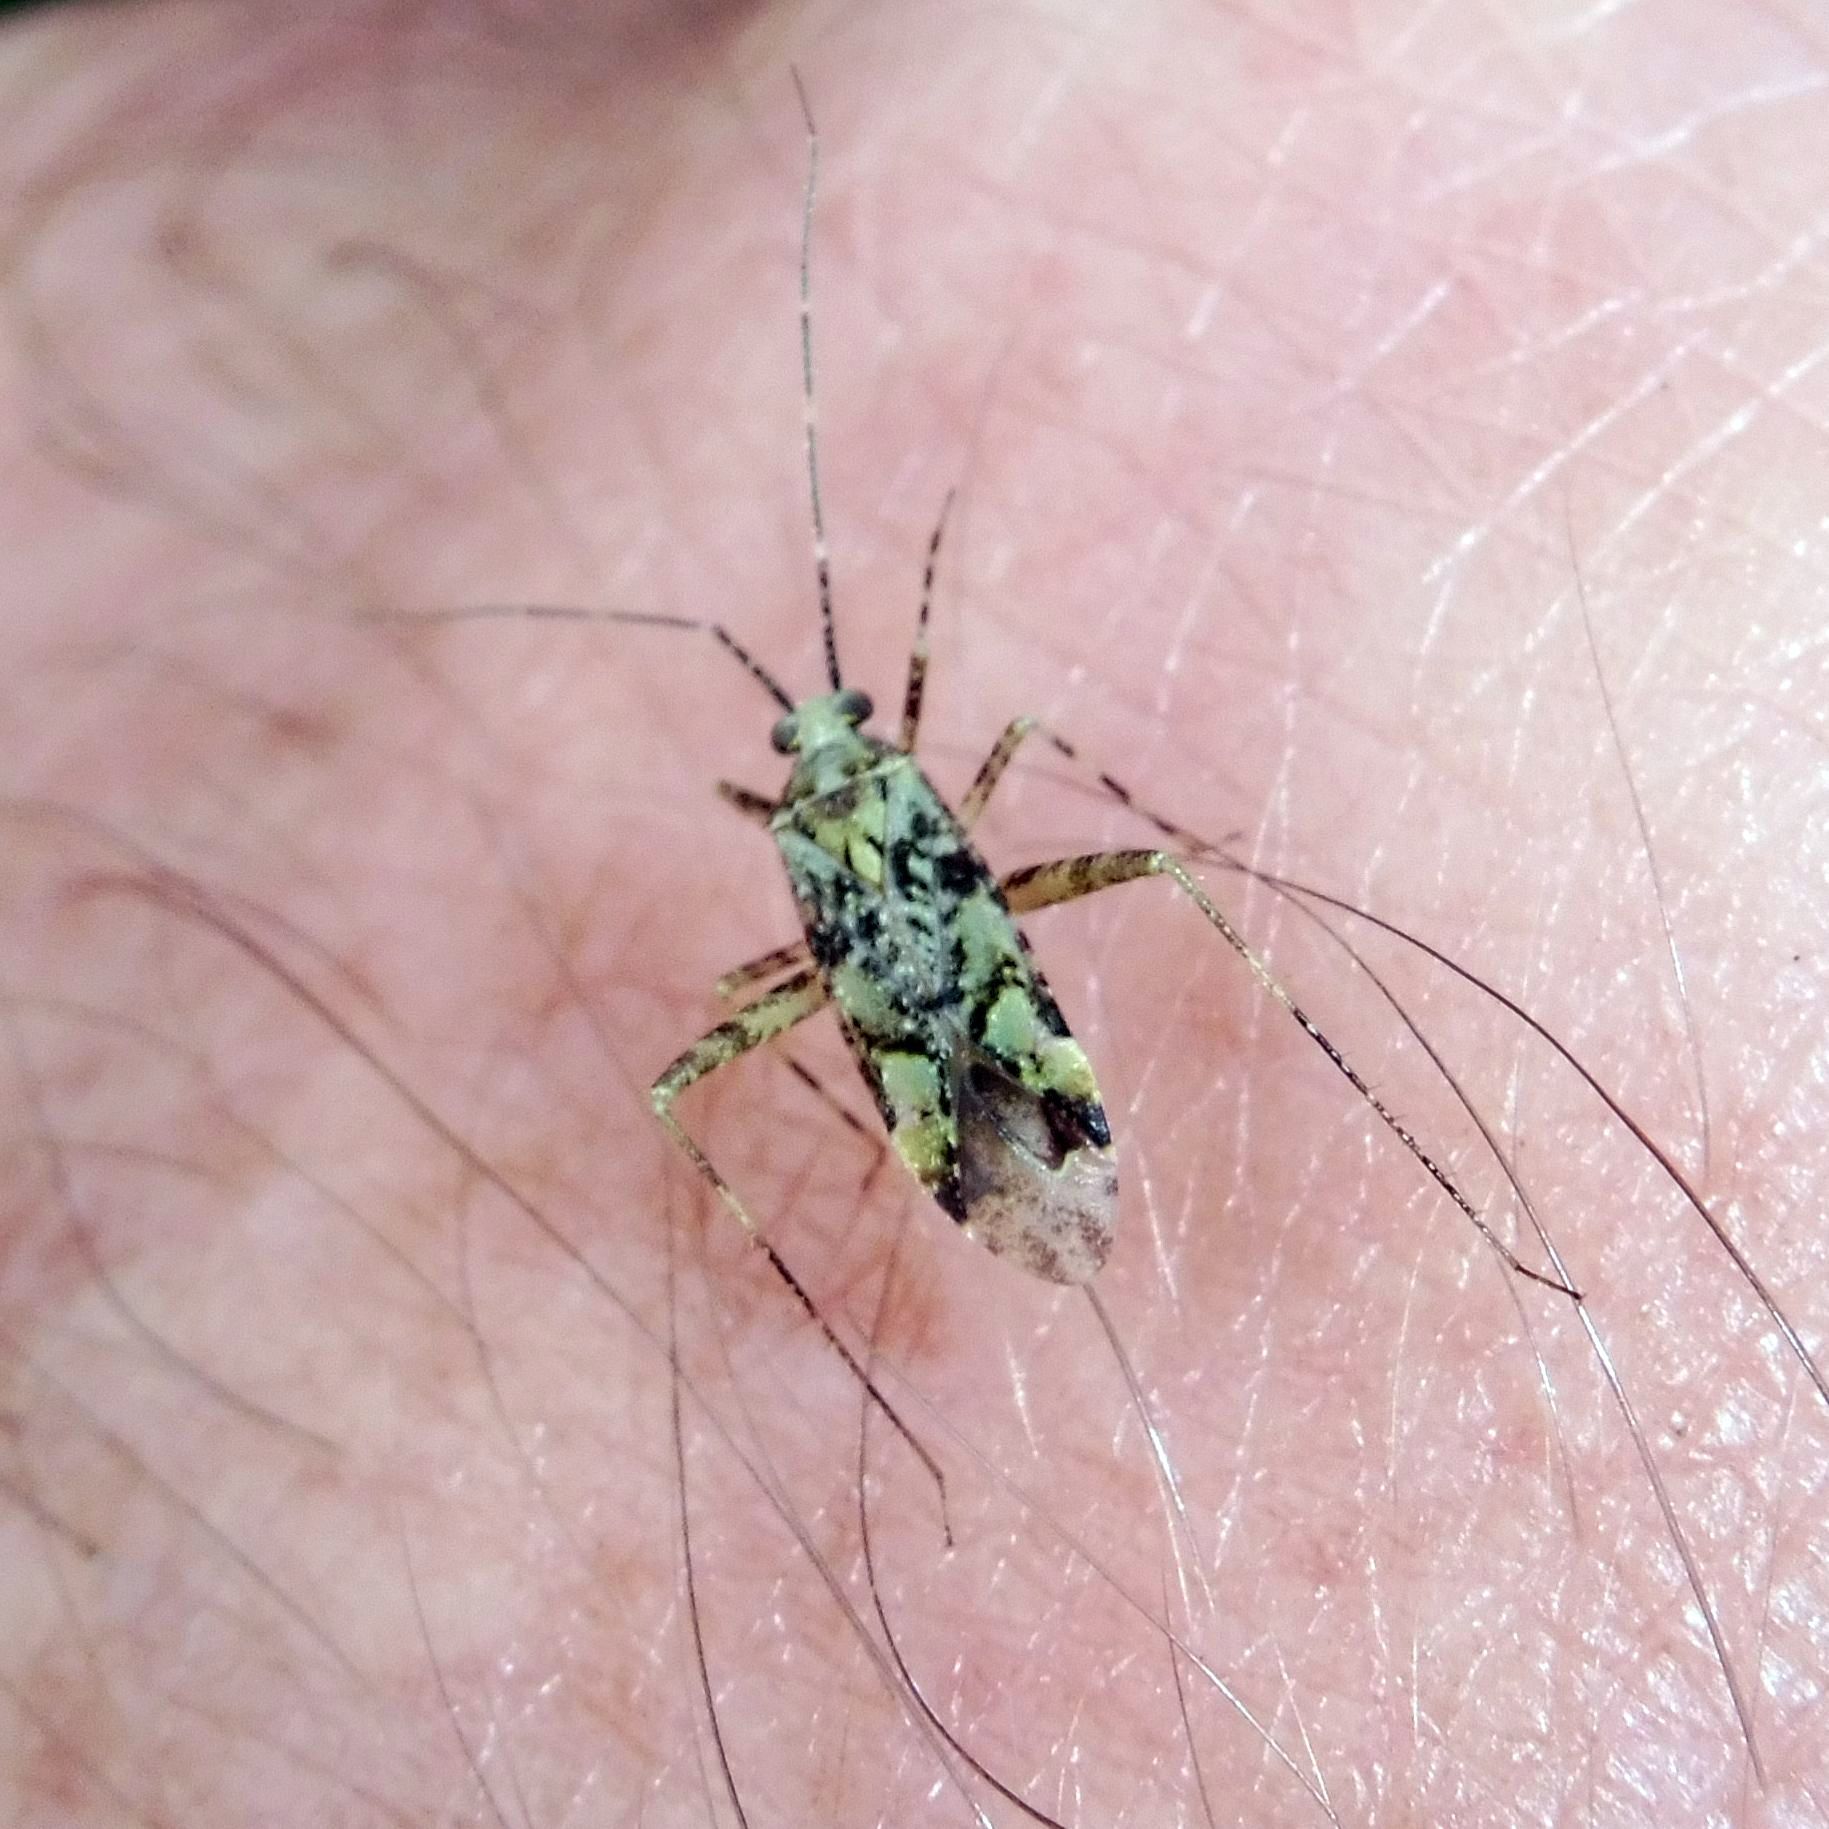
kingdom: Animalia
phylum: Arthropoda
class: Insecta
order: Hemiptera
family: Miridae
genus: Phytocoris
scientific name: Phytocoris tiliae
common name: Plant bug
